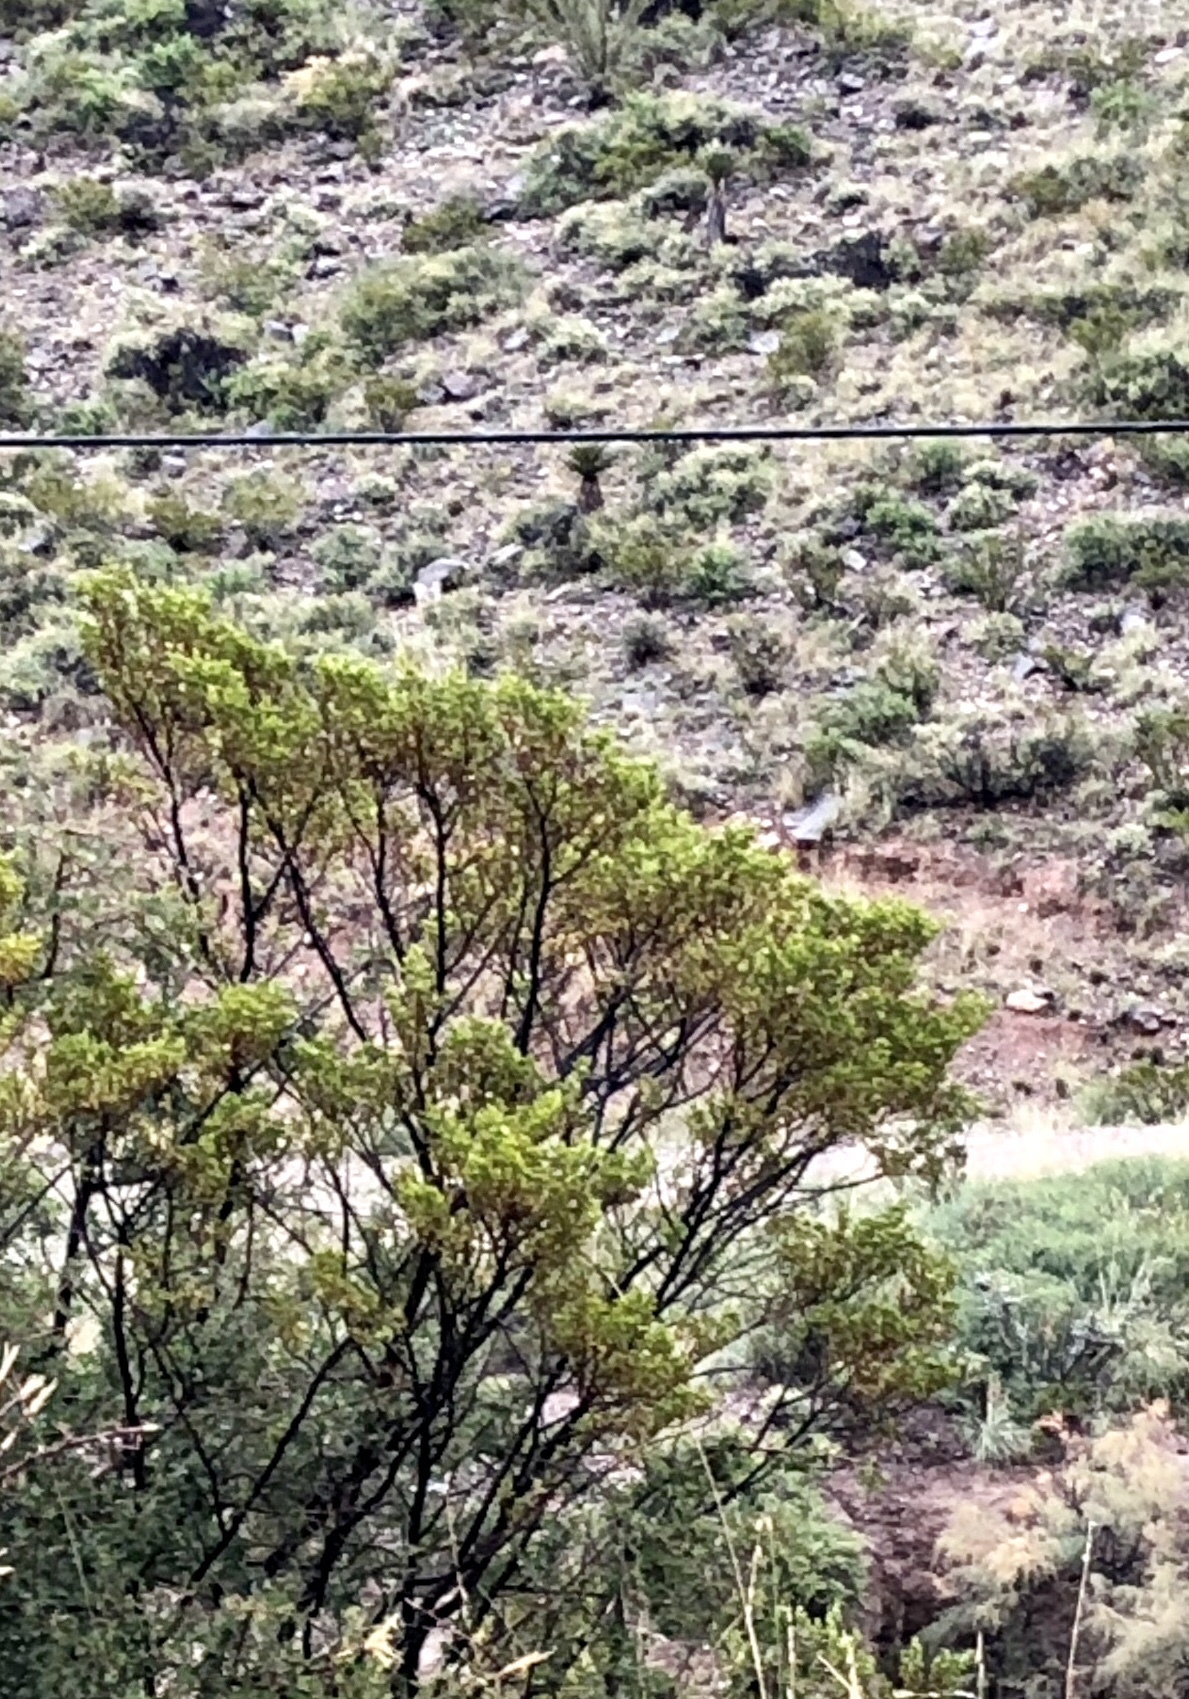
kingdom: Plantae
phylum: Tracheophyta
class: Magnoliopsida
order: Zygophyllales
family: Zygophyllaceae
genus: Larrea
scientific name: Larrea tridentata
